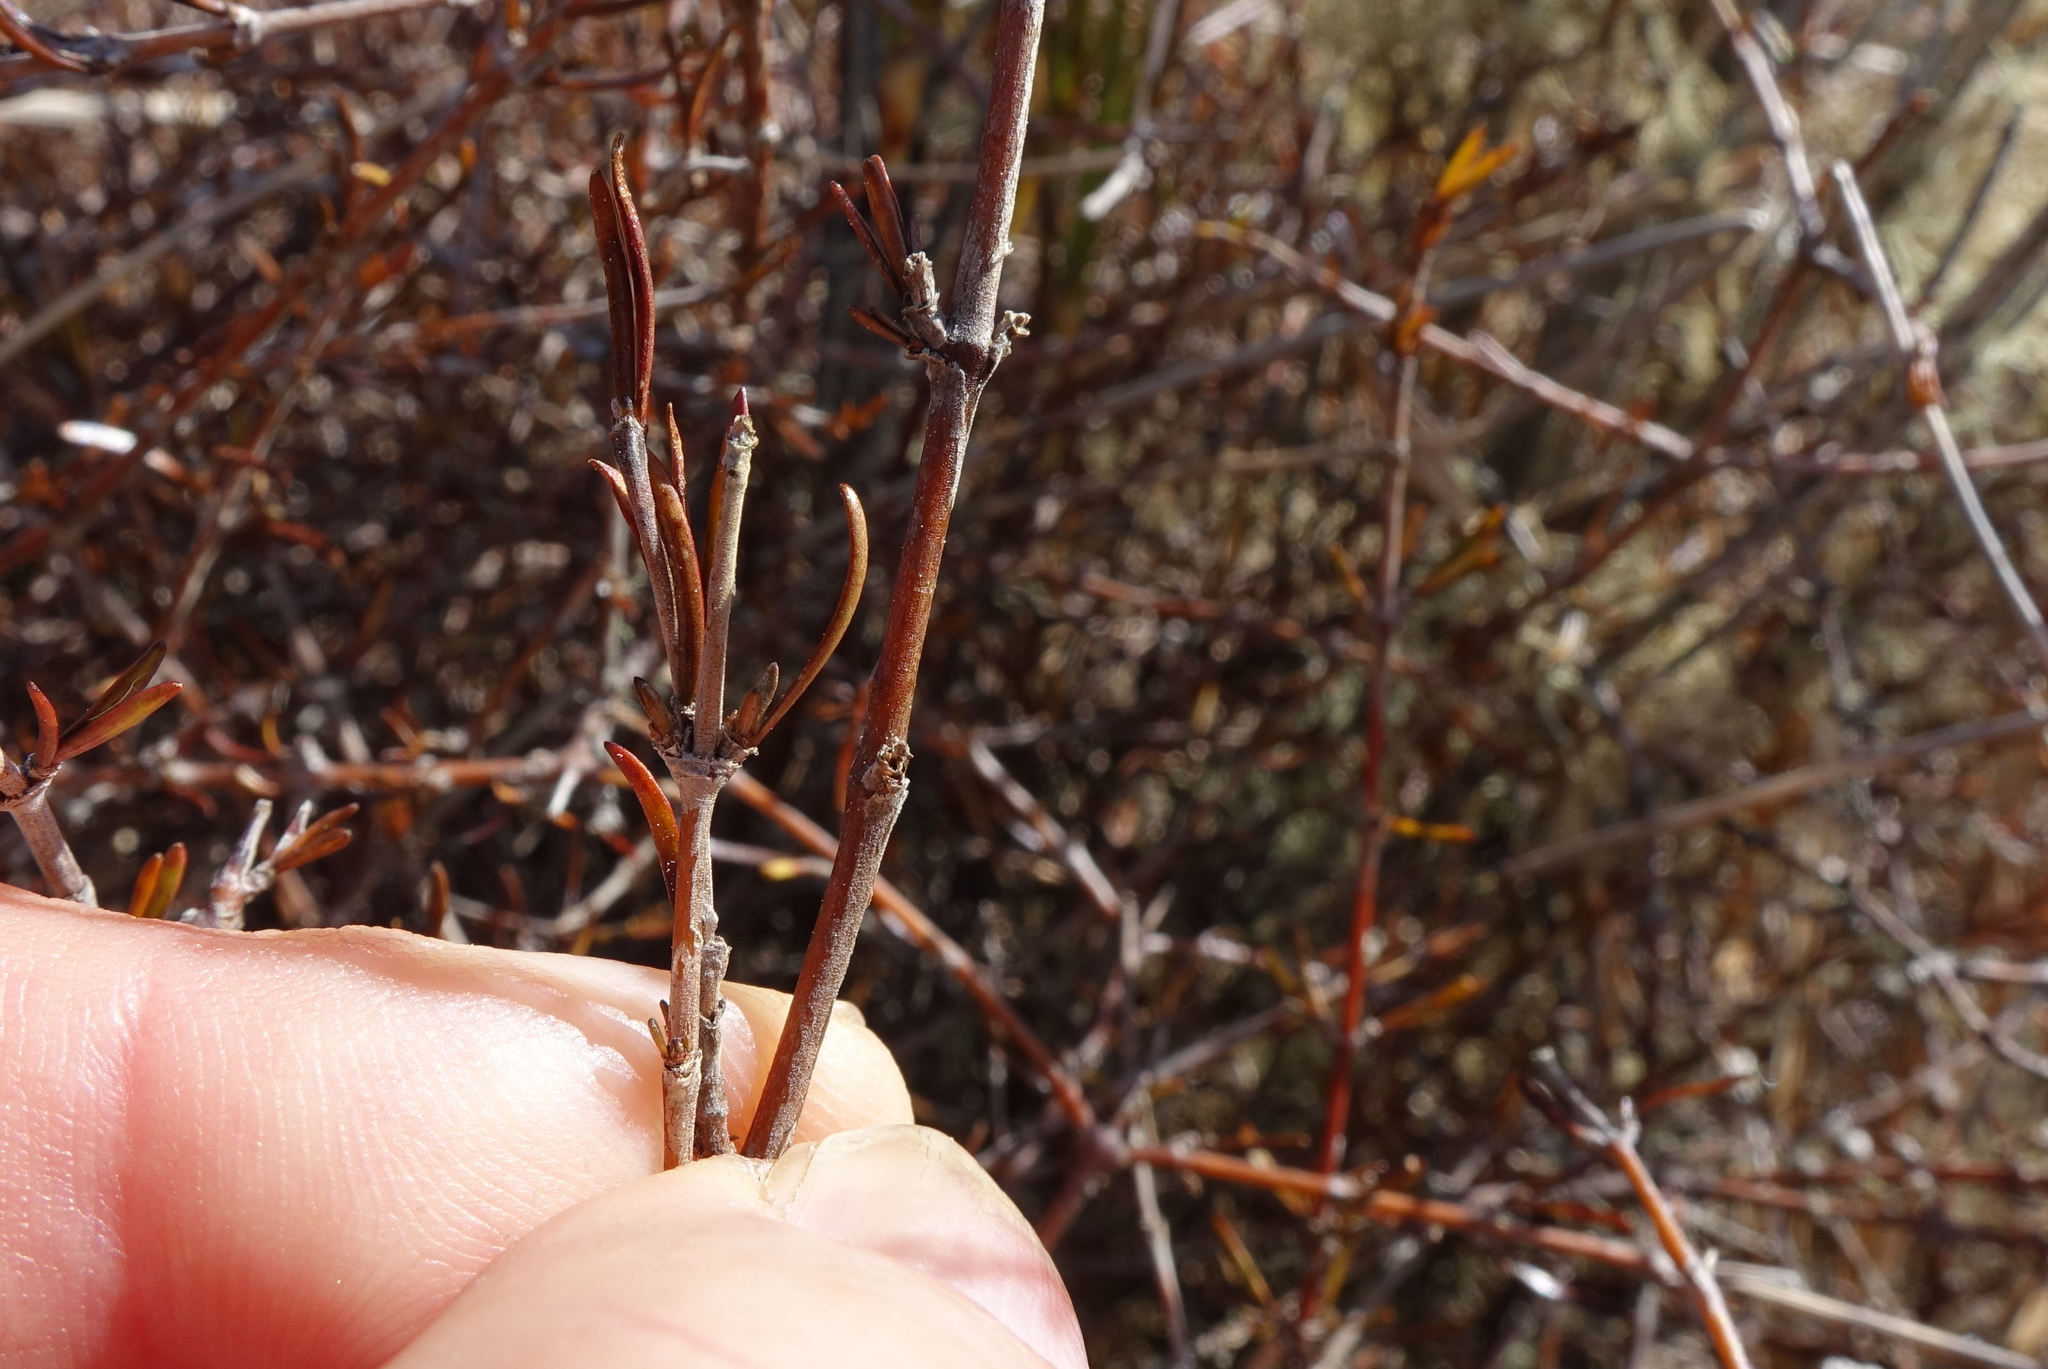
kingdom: Plantae
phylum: Tracheophyta
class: Magnoliopsida
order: Gentianales
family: Rubiaceae
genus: Coprosma
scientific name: Coprosma elatirioides
